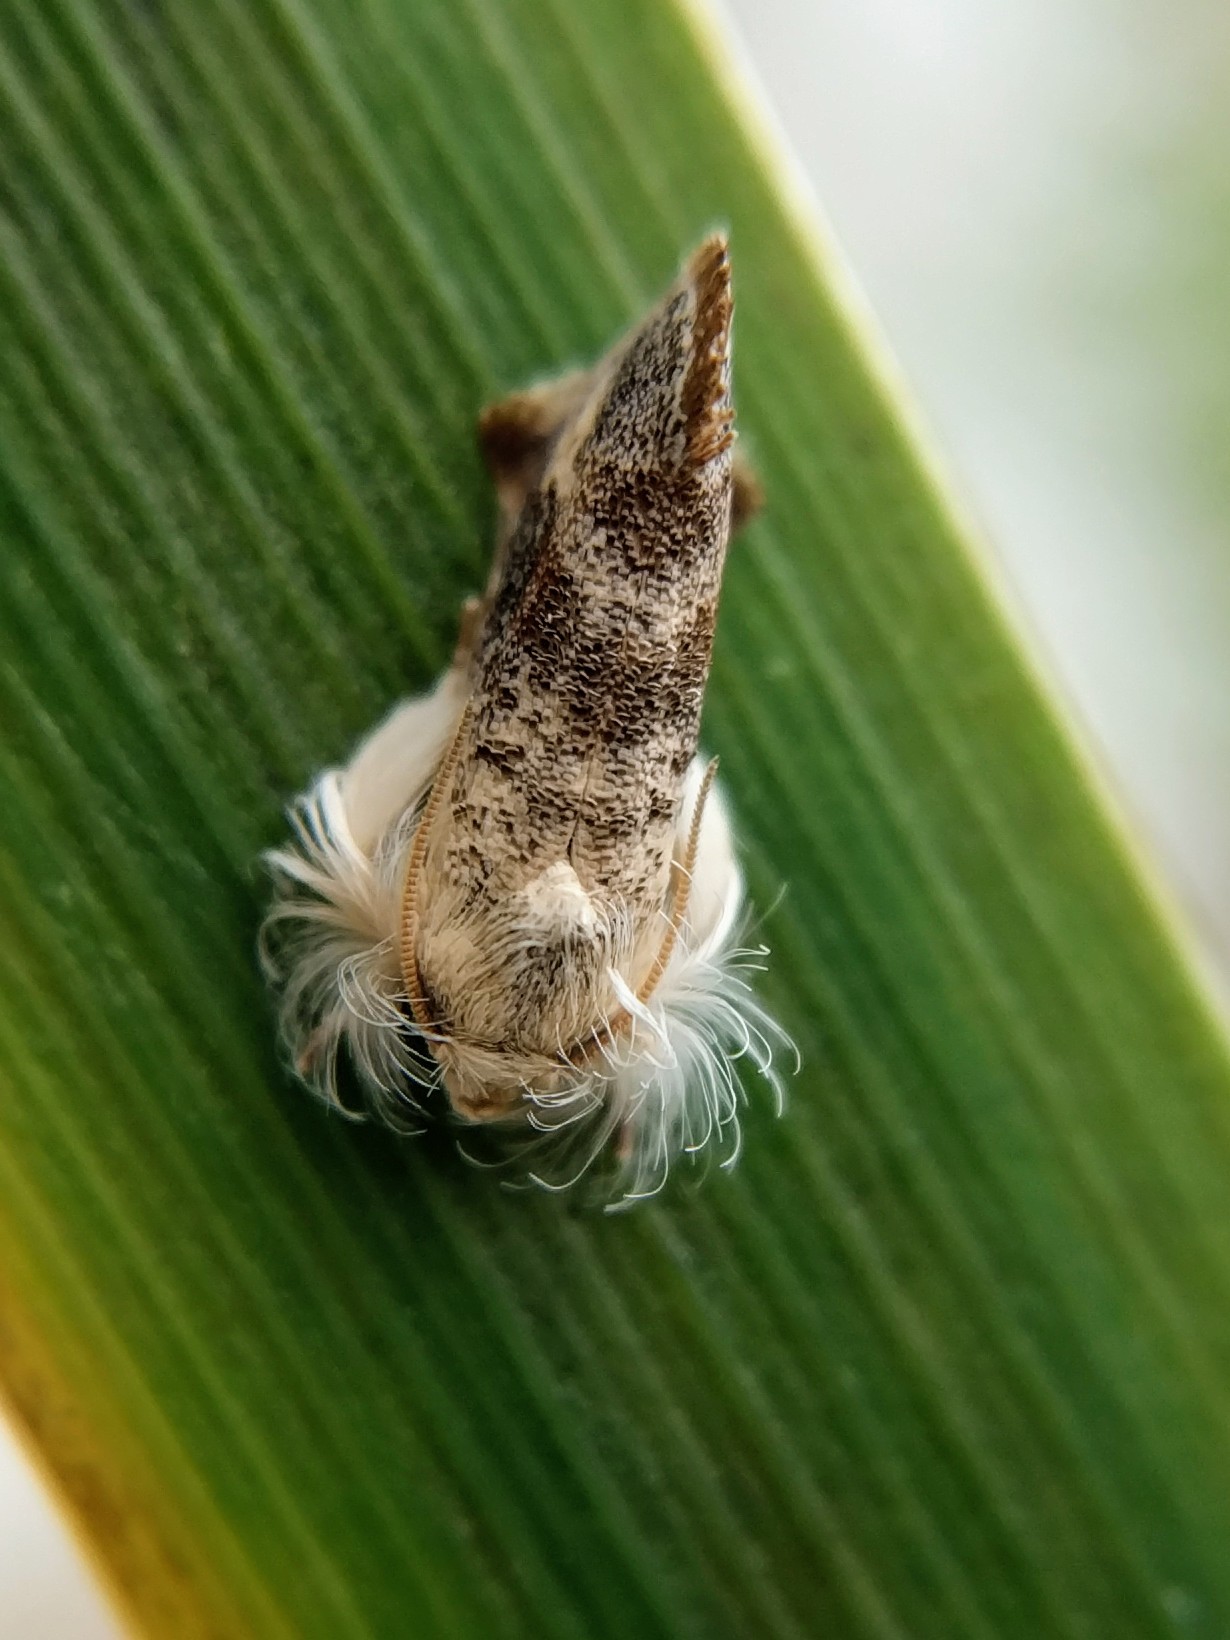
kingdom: Animalia
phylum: Arthropoda
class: Insecta
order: Lepidoptera
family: Tineidae
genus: Acrolophus
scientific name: Acrolophus mycetophagus
